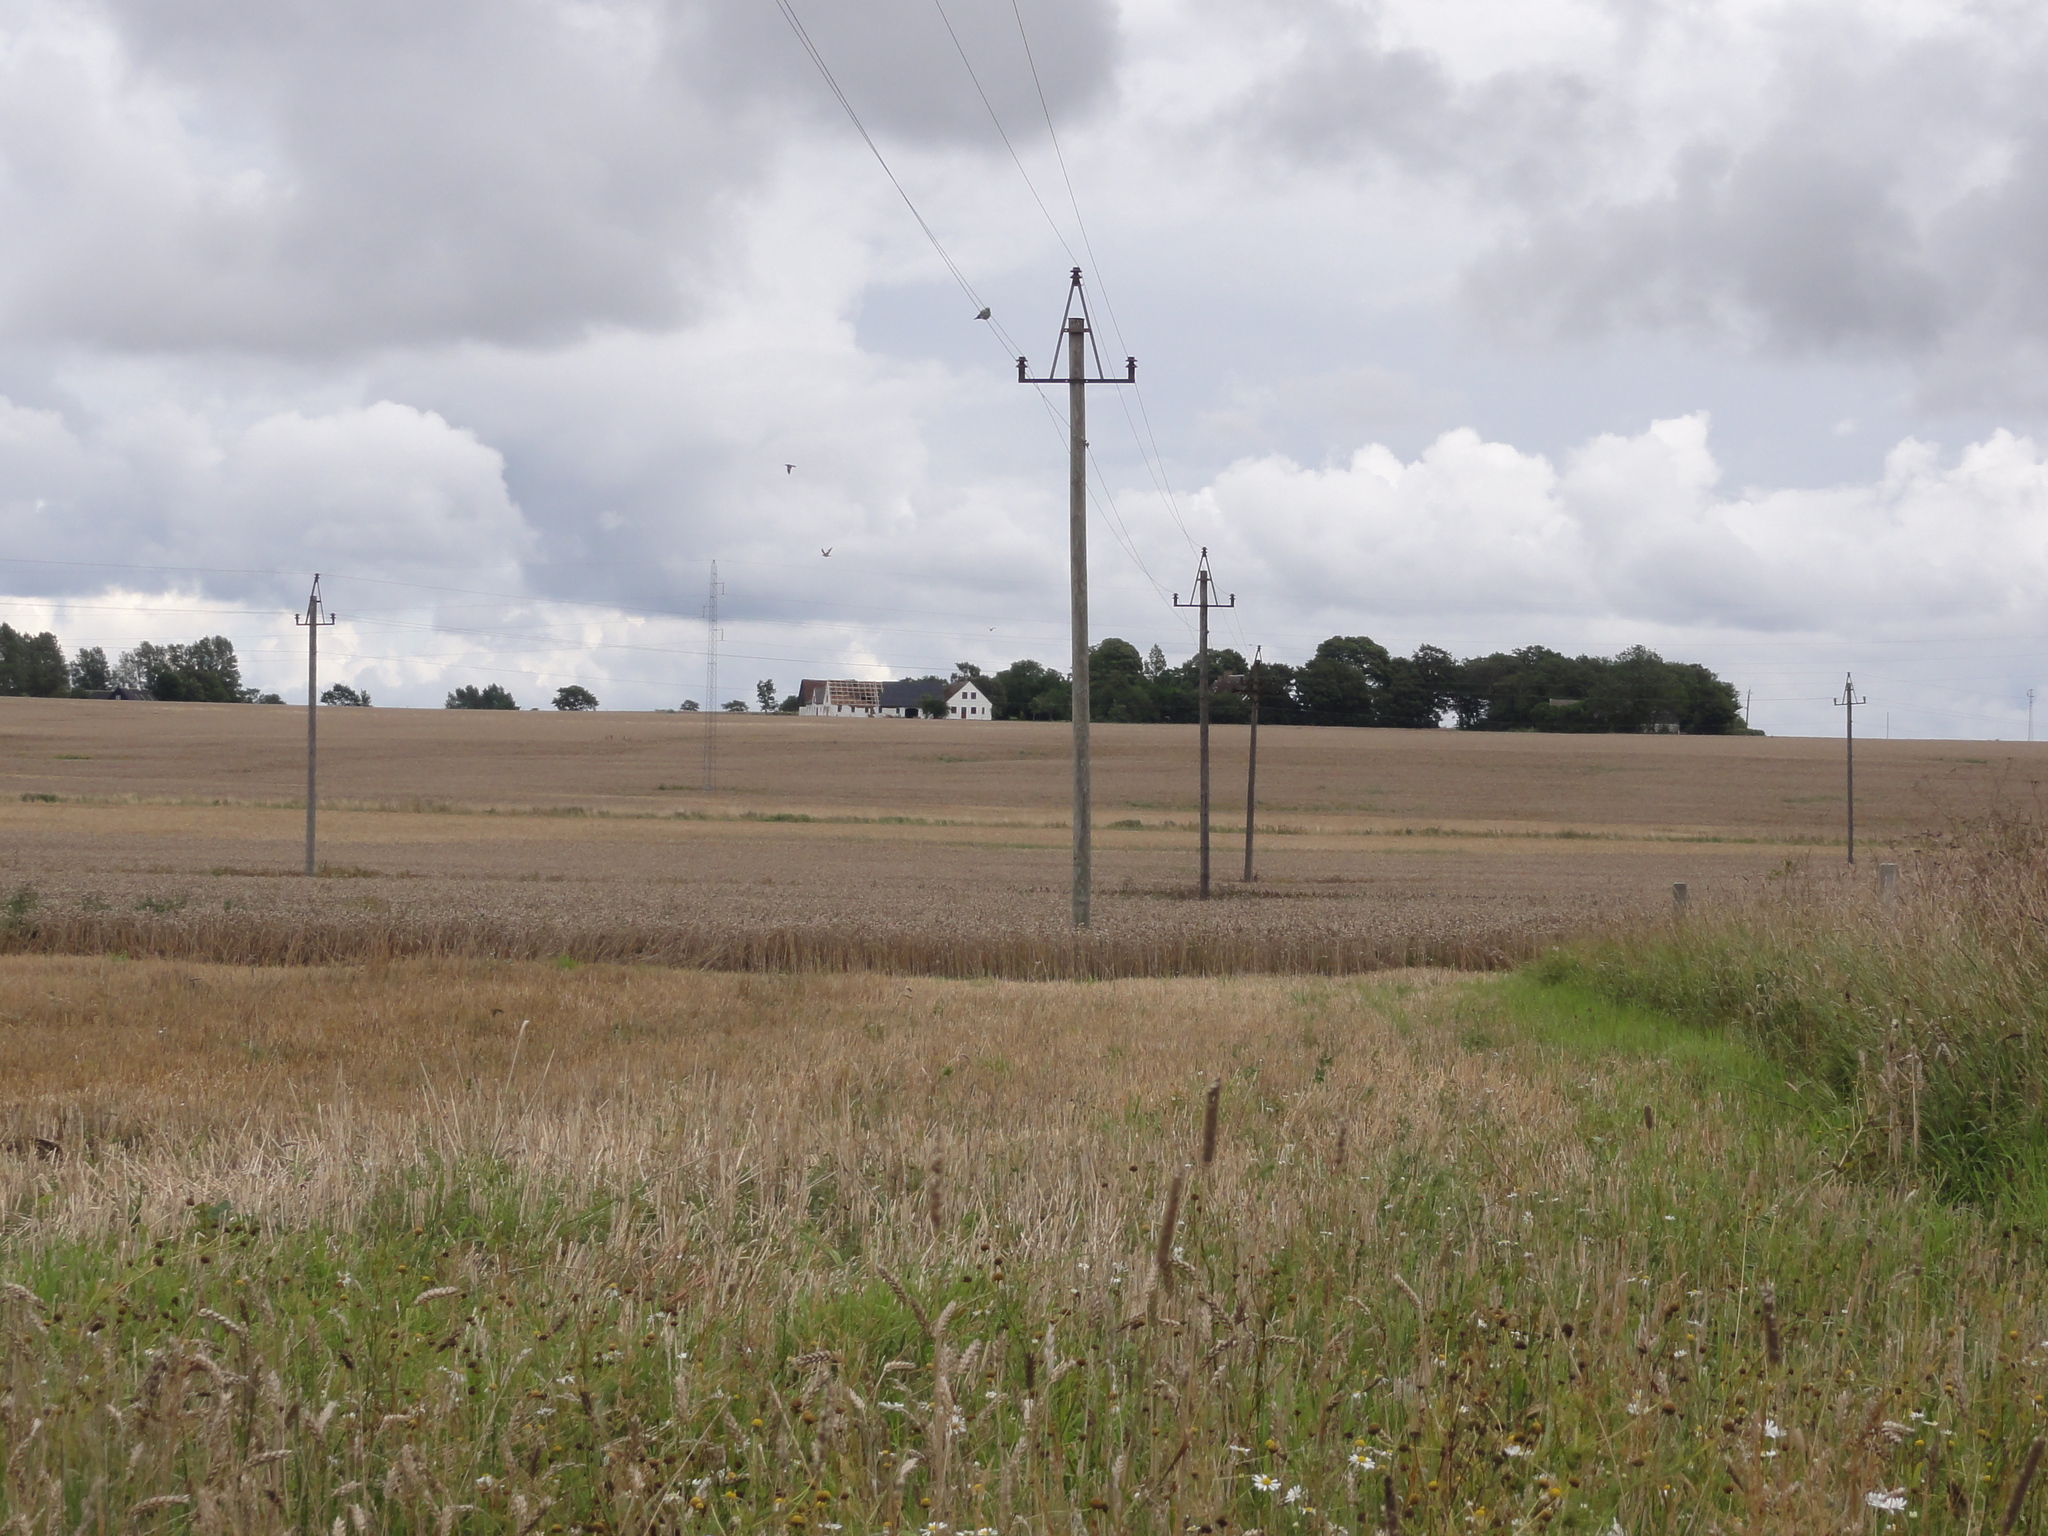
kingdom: Animalia
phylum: Chordata
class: Aves
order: Coraciiformes
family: Coraciidae
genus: Coracias
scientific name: Coracias garrulus
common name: European roller
